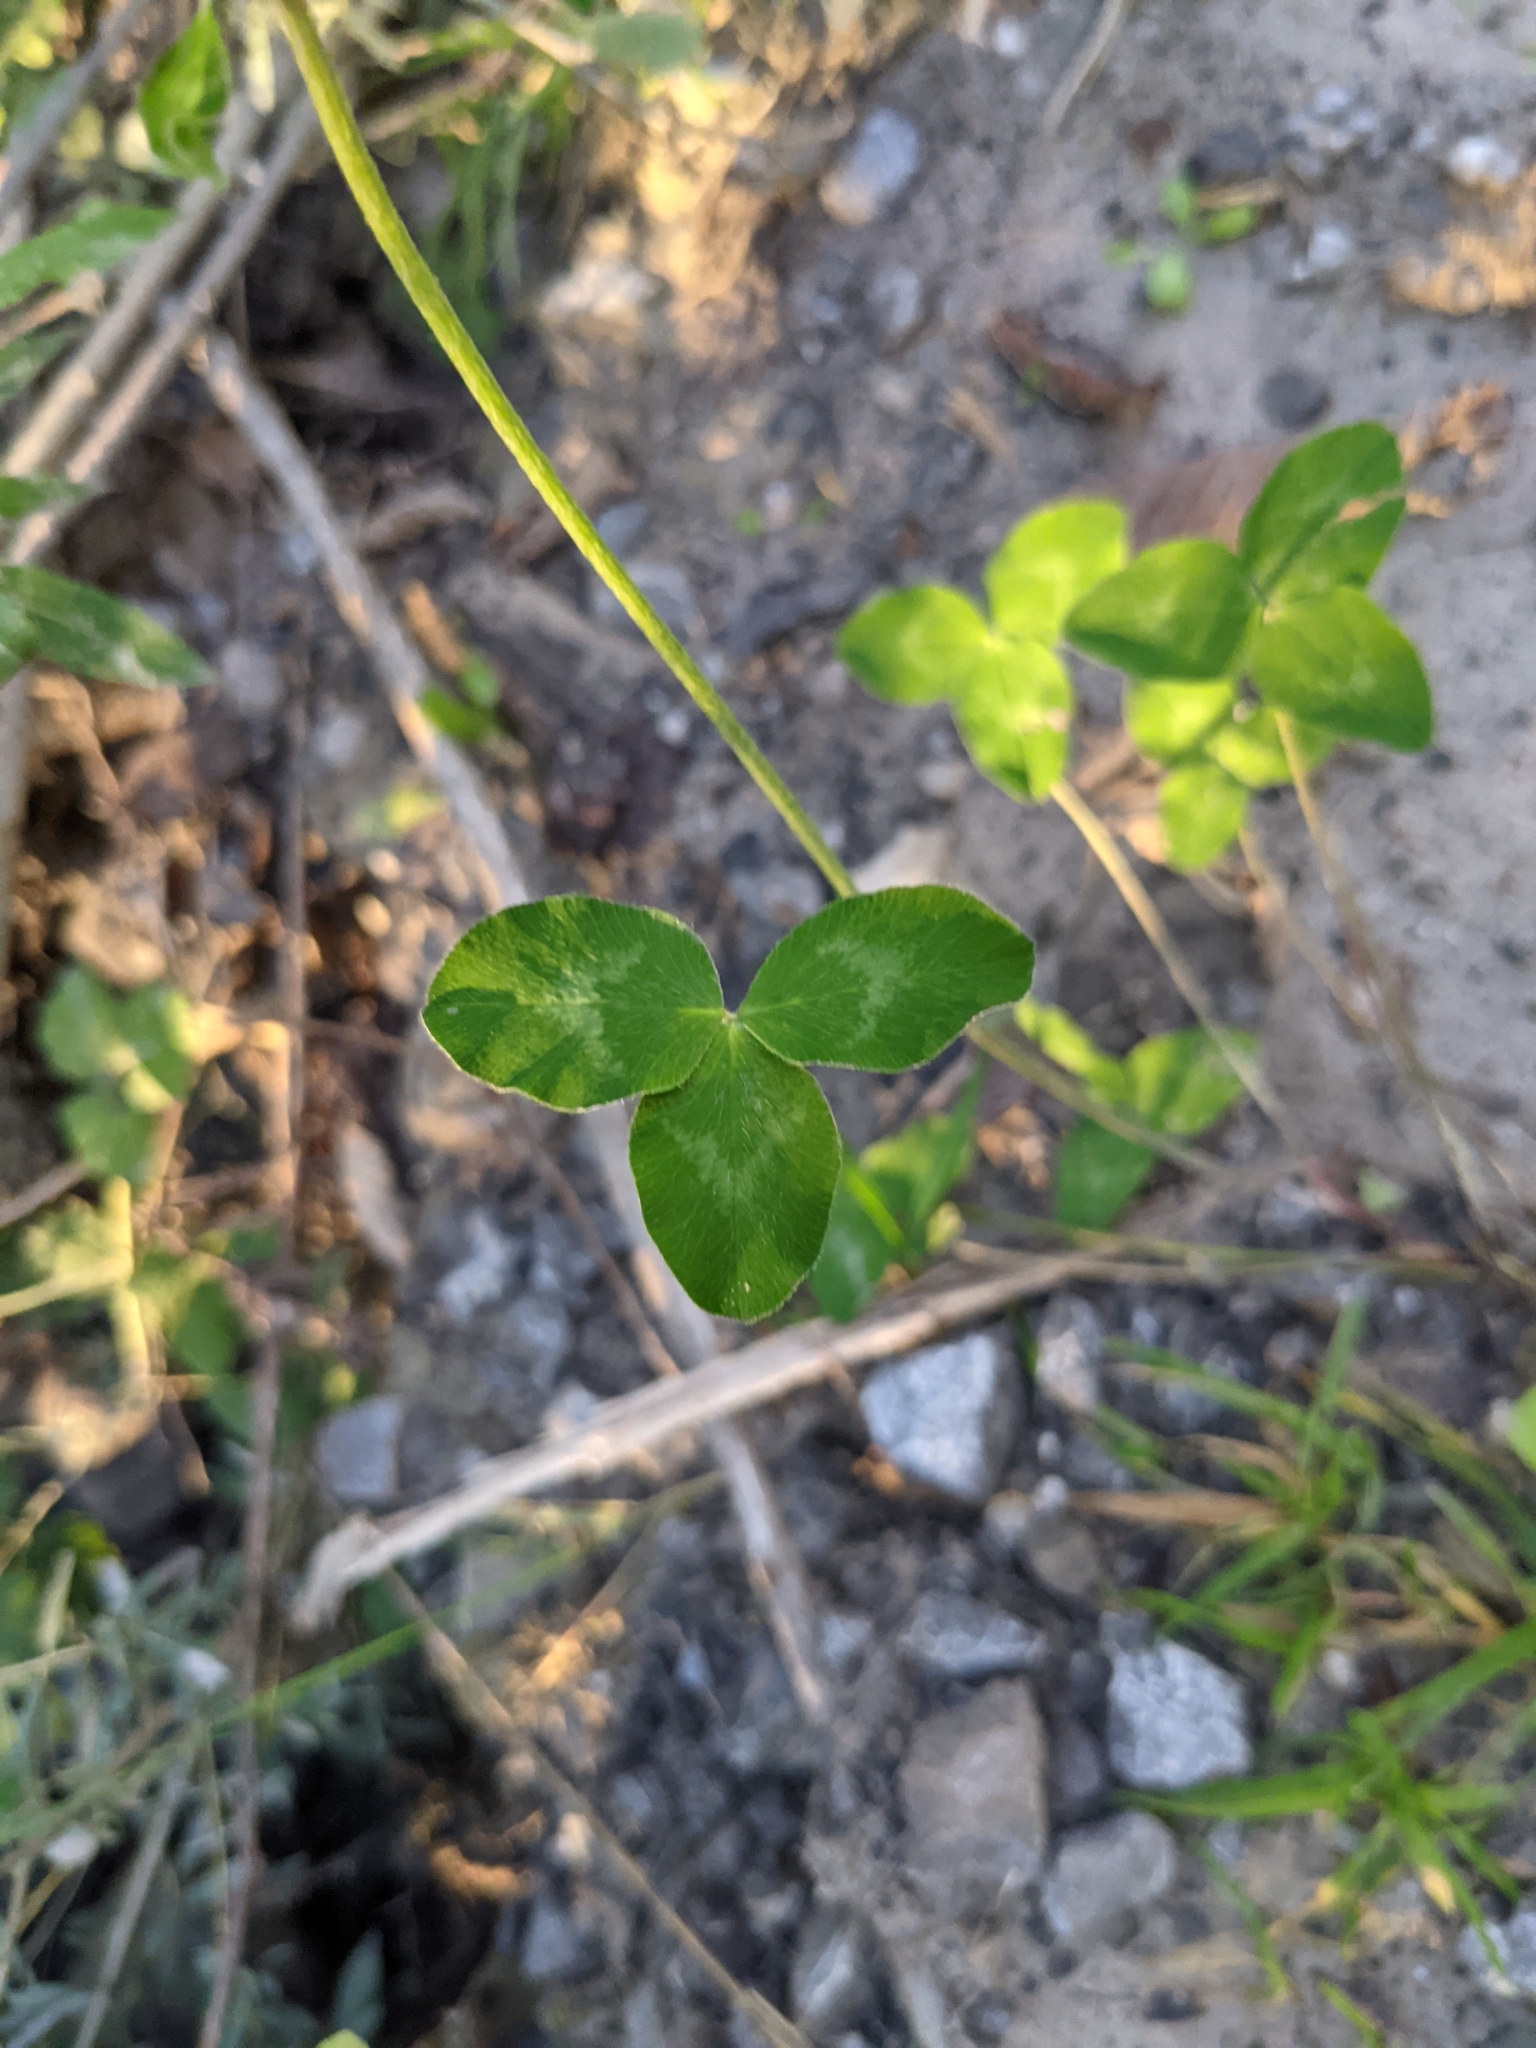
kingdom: Plantae
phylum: Tracheophyta
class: Magnoliopsida
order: Fabales
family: Fabaceae
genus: Trifolium
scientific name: Trifolium pratense
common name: Red clover
